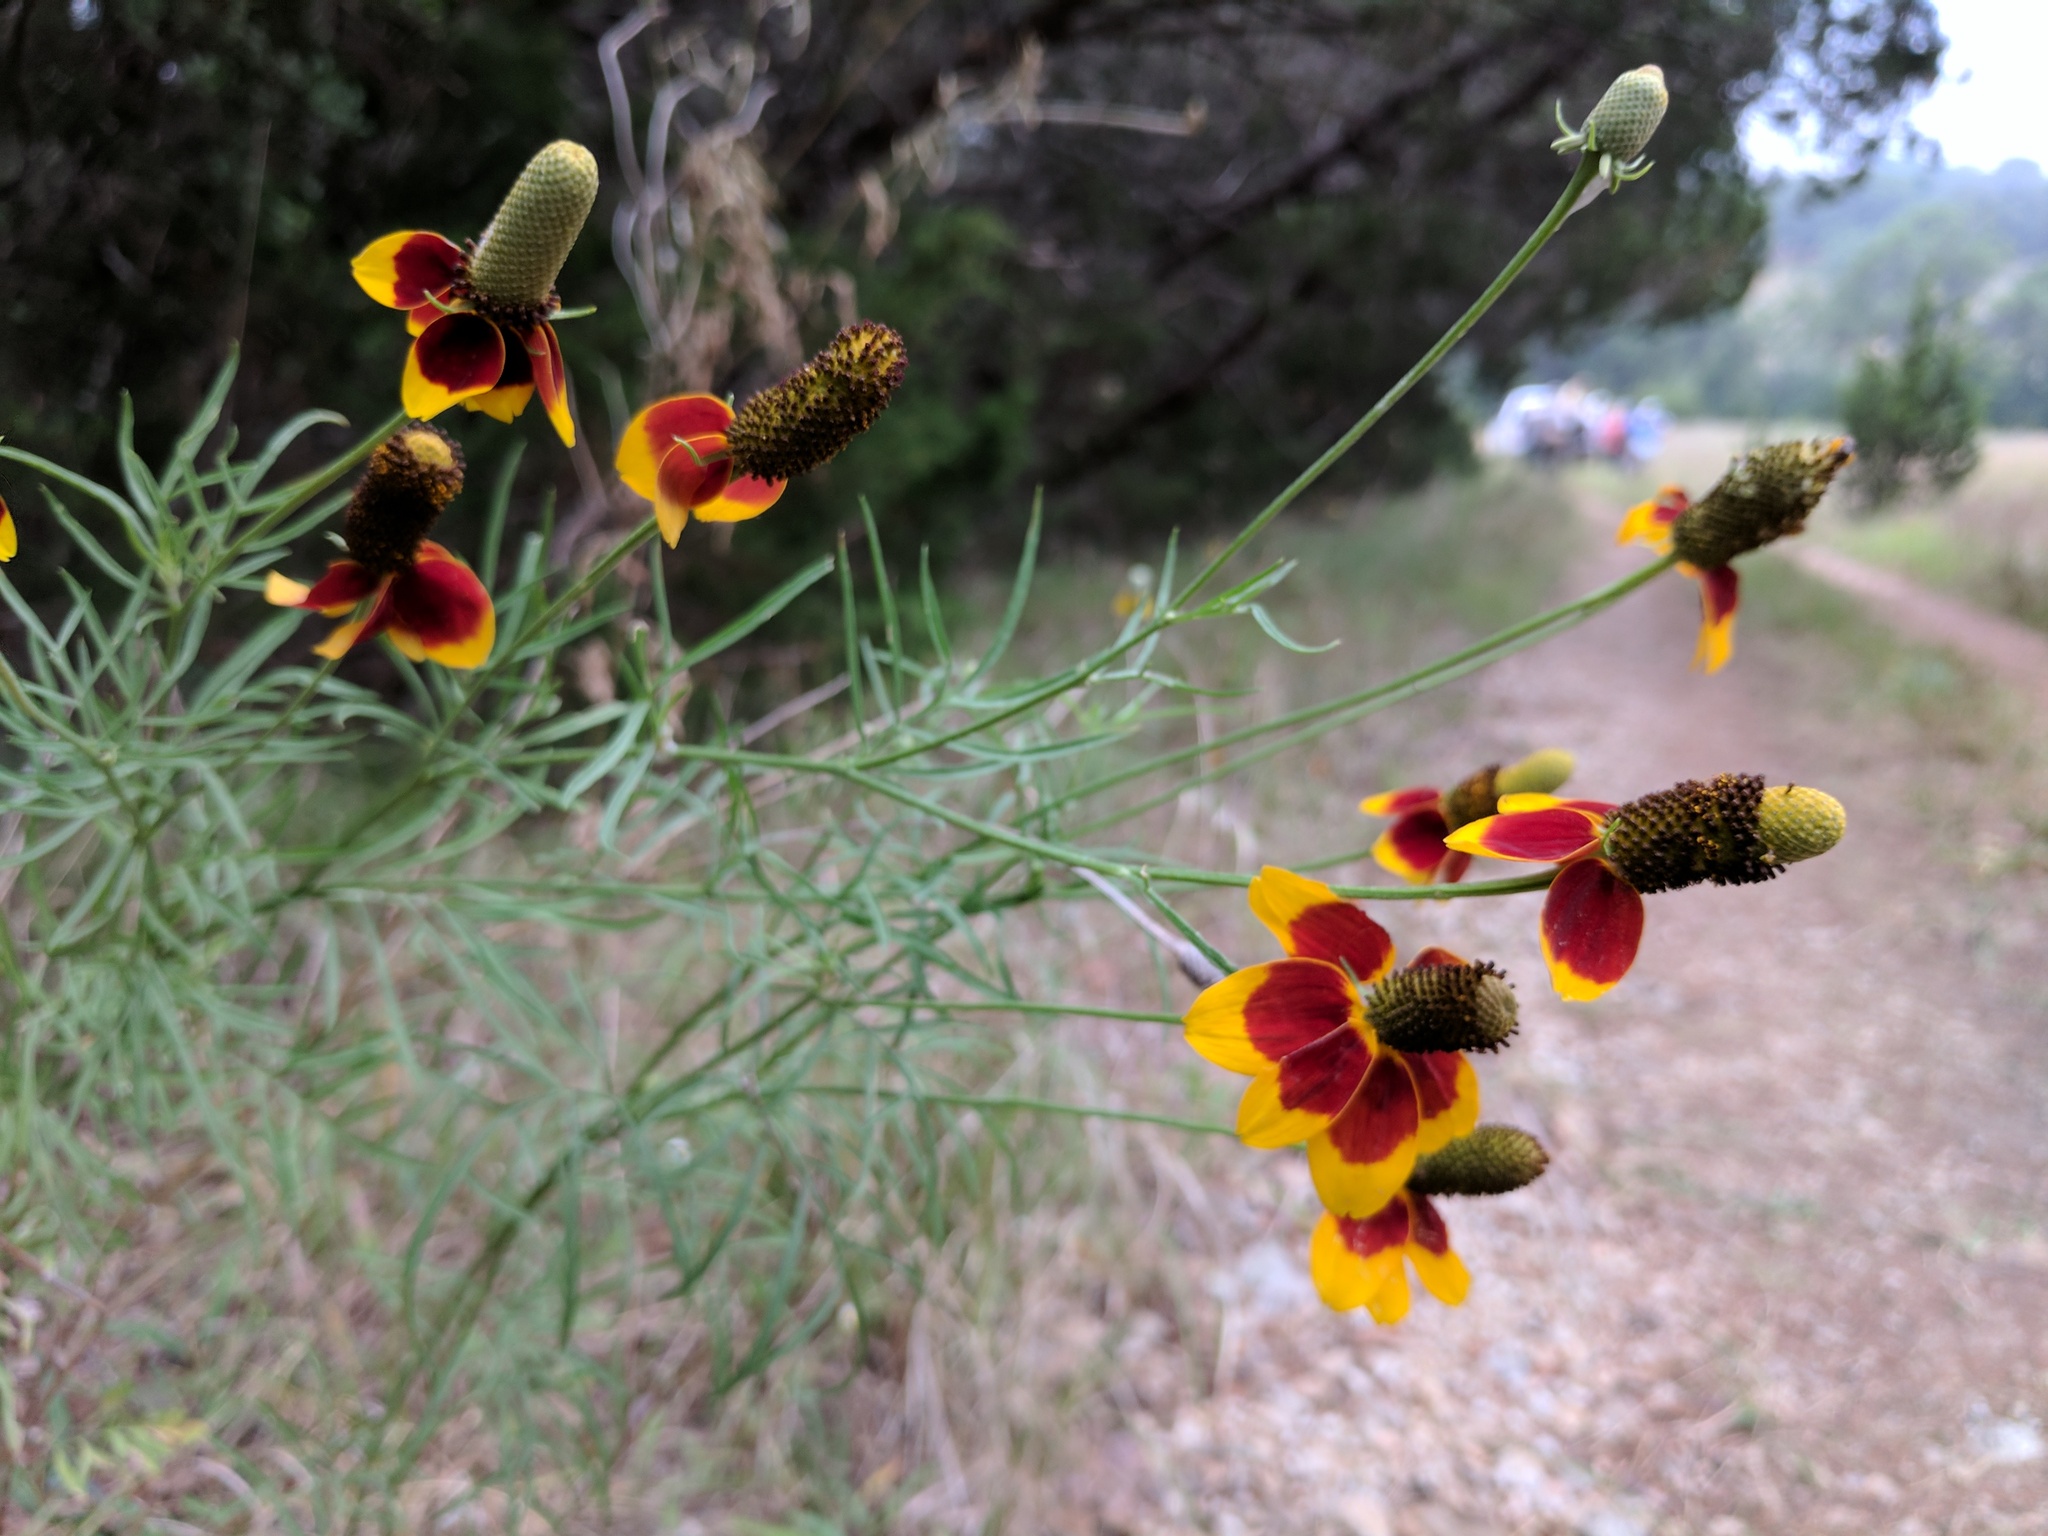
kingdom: Plantae
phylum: Tracheophyta
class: Magnoliopsida
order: Asterales
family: Asteraceae
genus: Ratibida
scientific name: Ratibida columnifera
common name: Prairie coneflower
